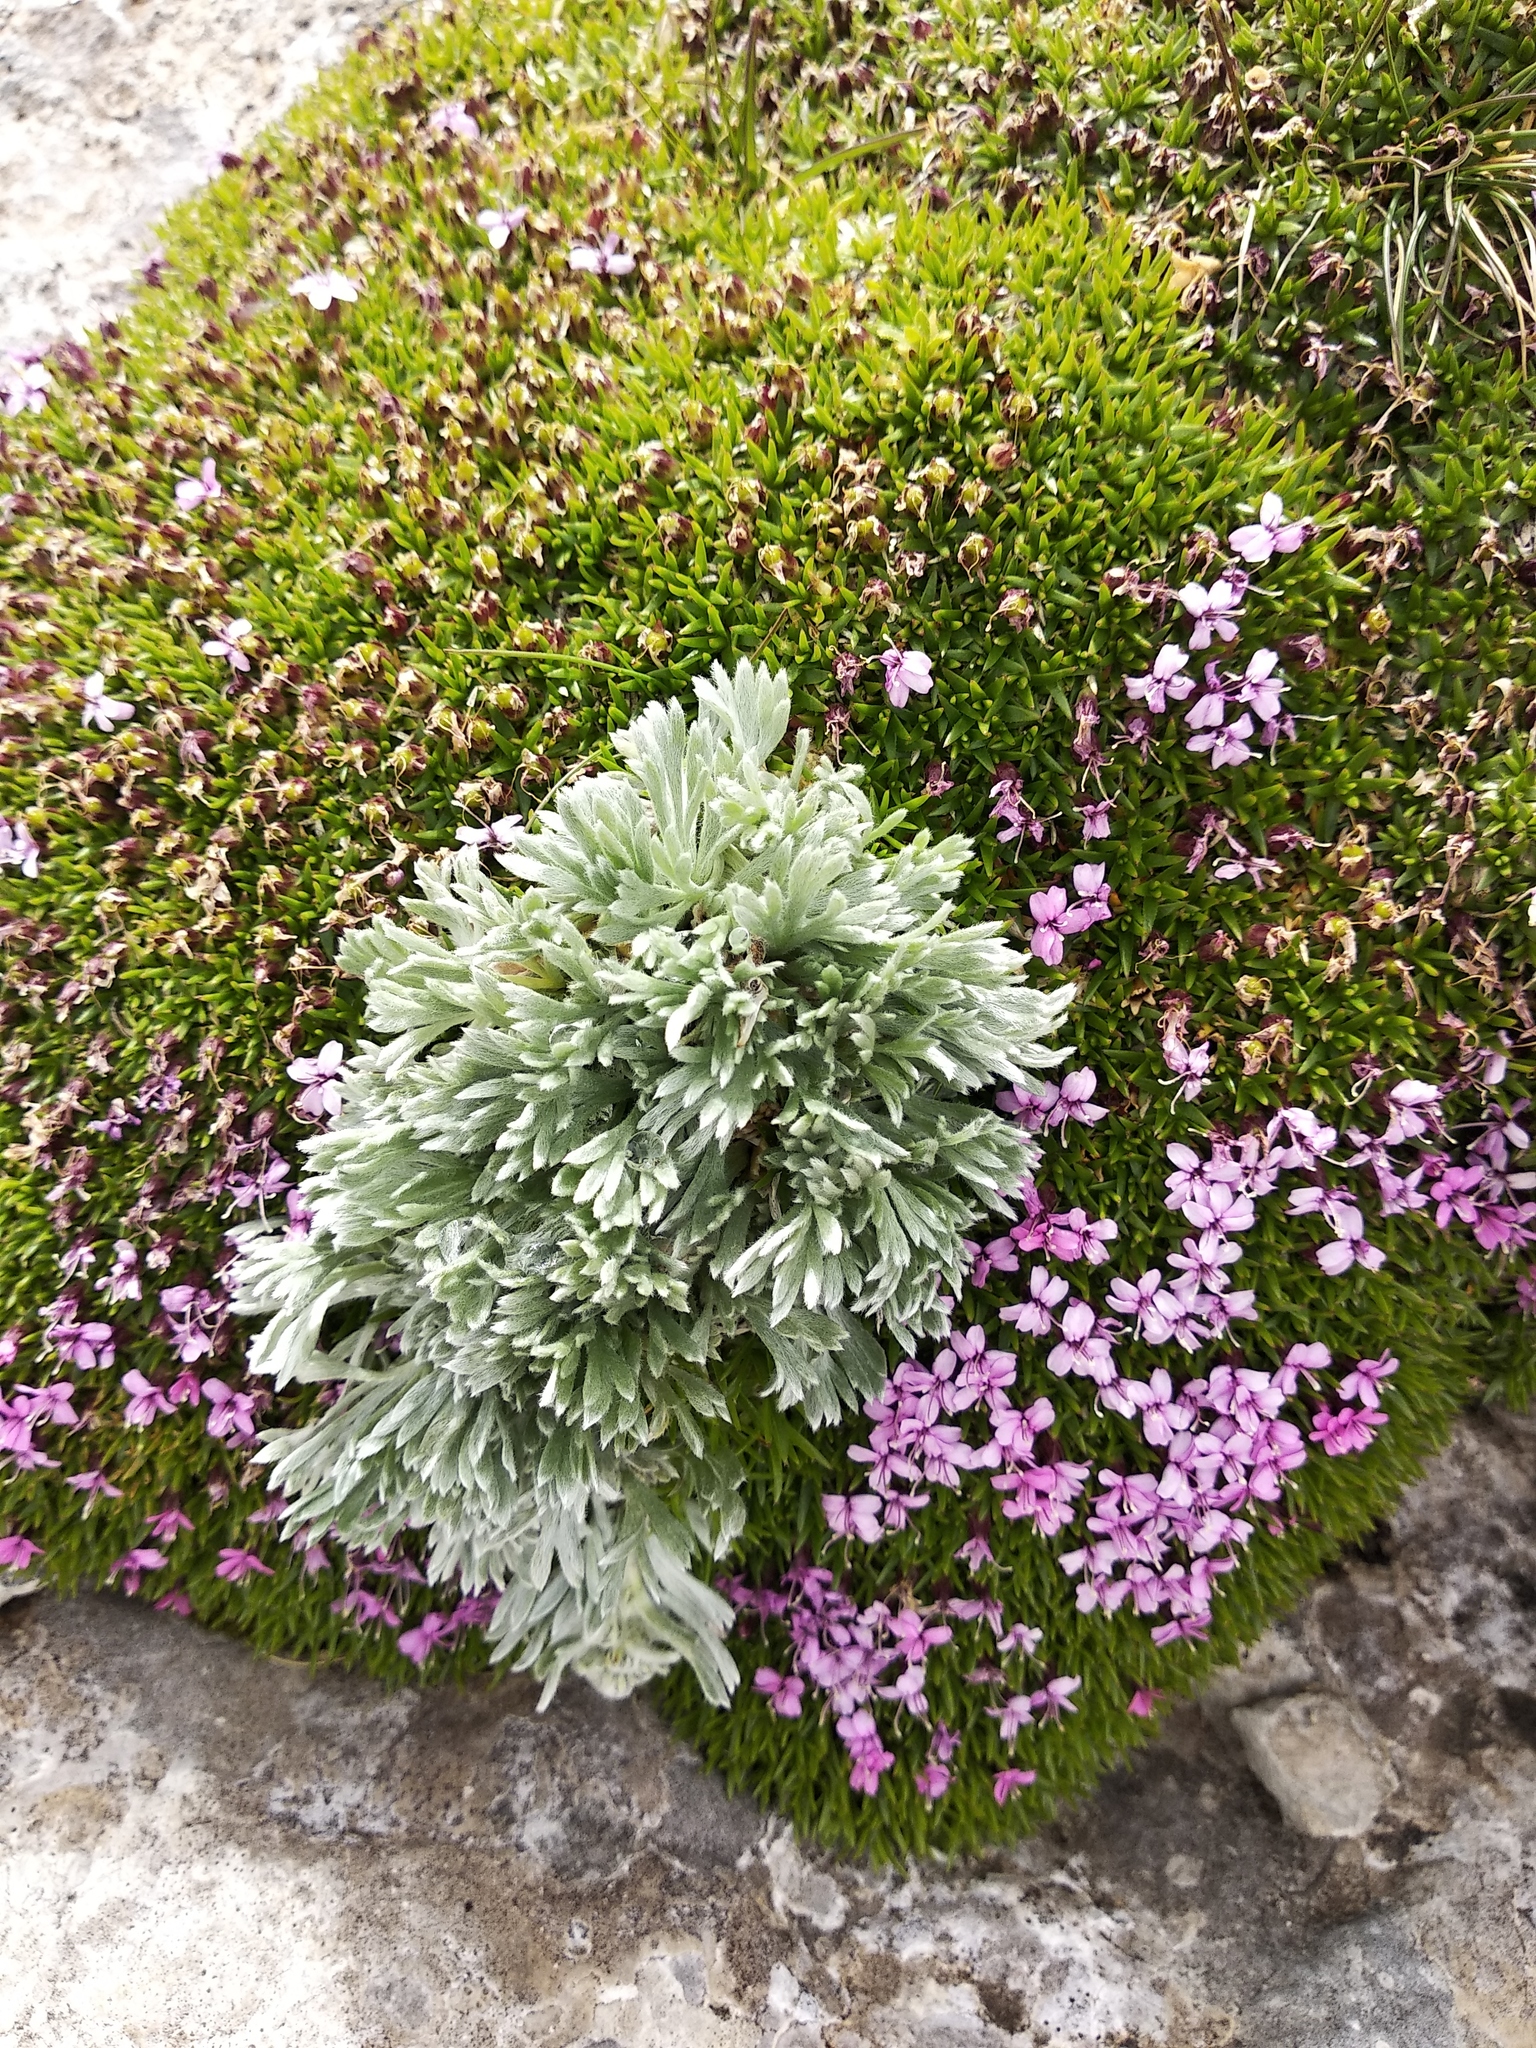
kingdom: Plantae
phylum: Tracheophyta
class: Magnoliopsida
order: Caryophyllales
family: Caryophyllaceae
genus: Silene
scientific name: Silene acaulis
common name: Moss campion
